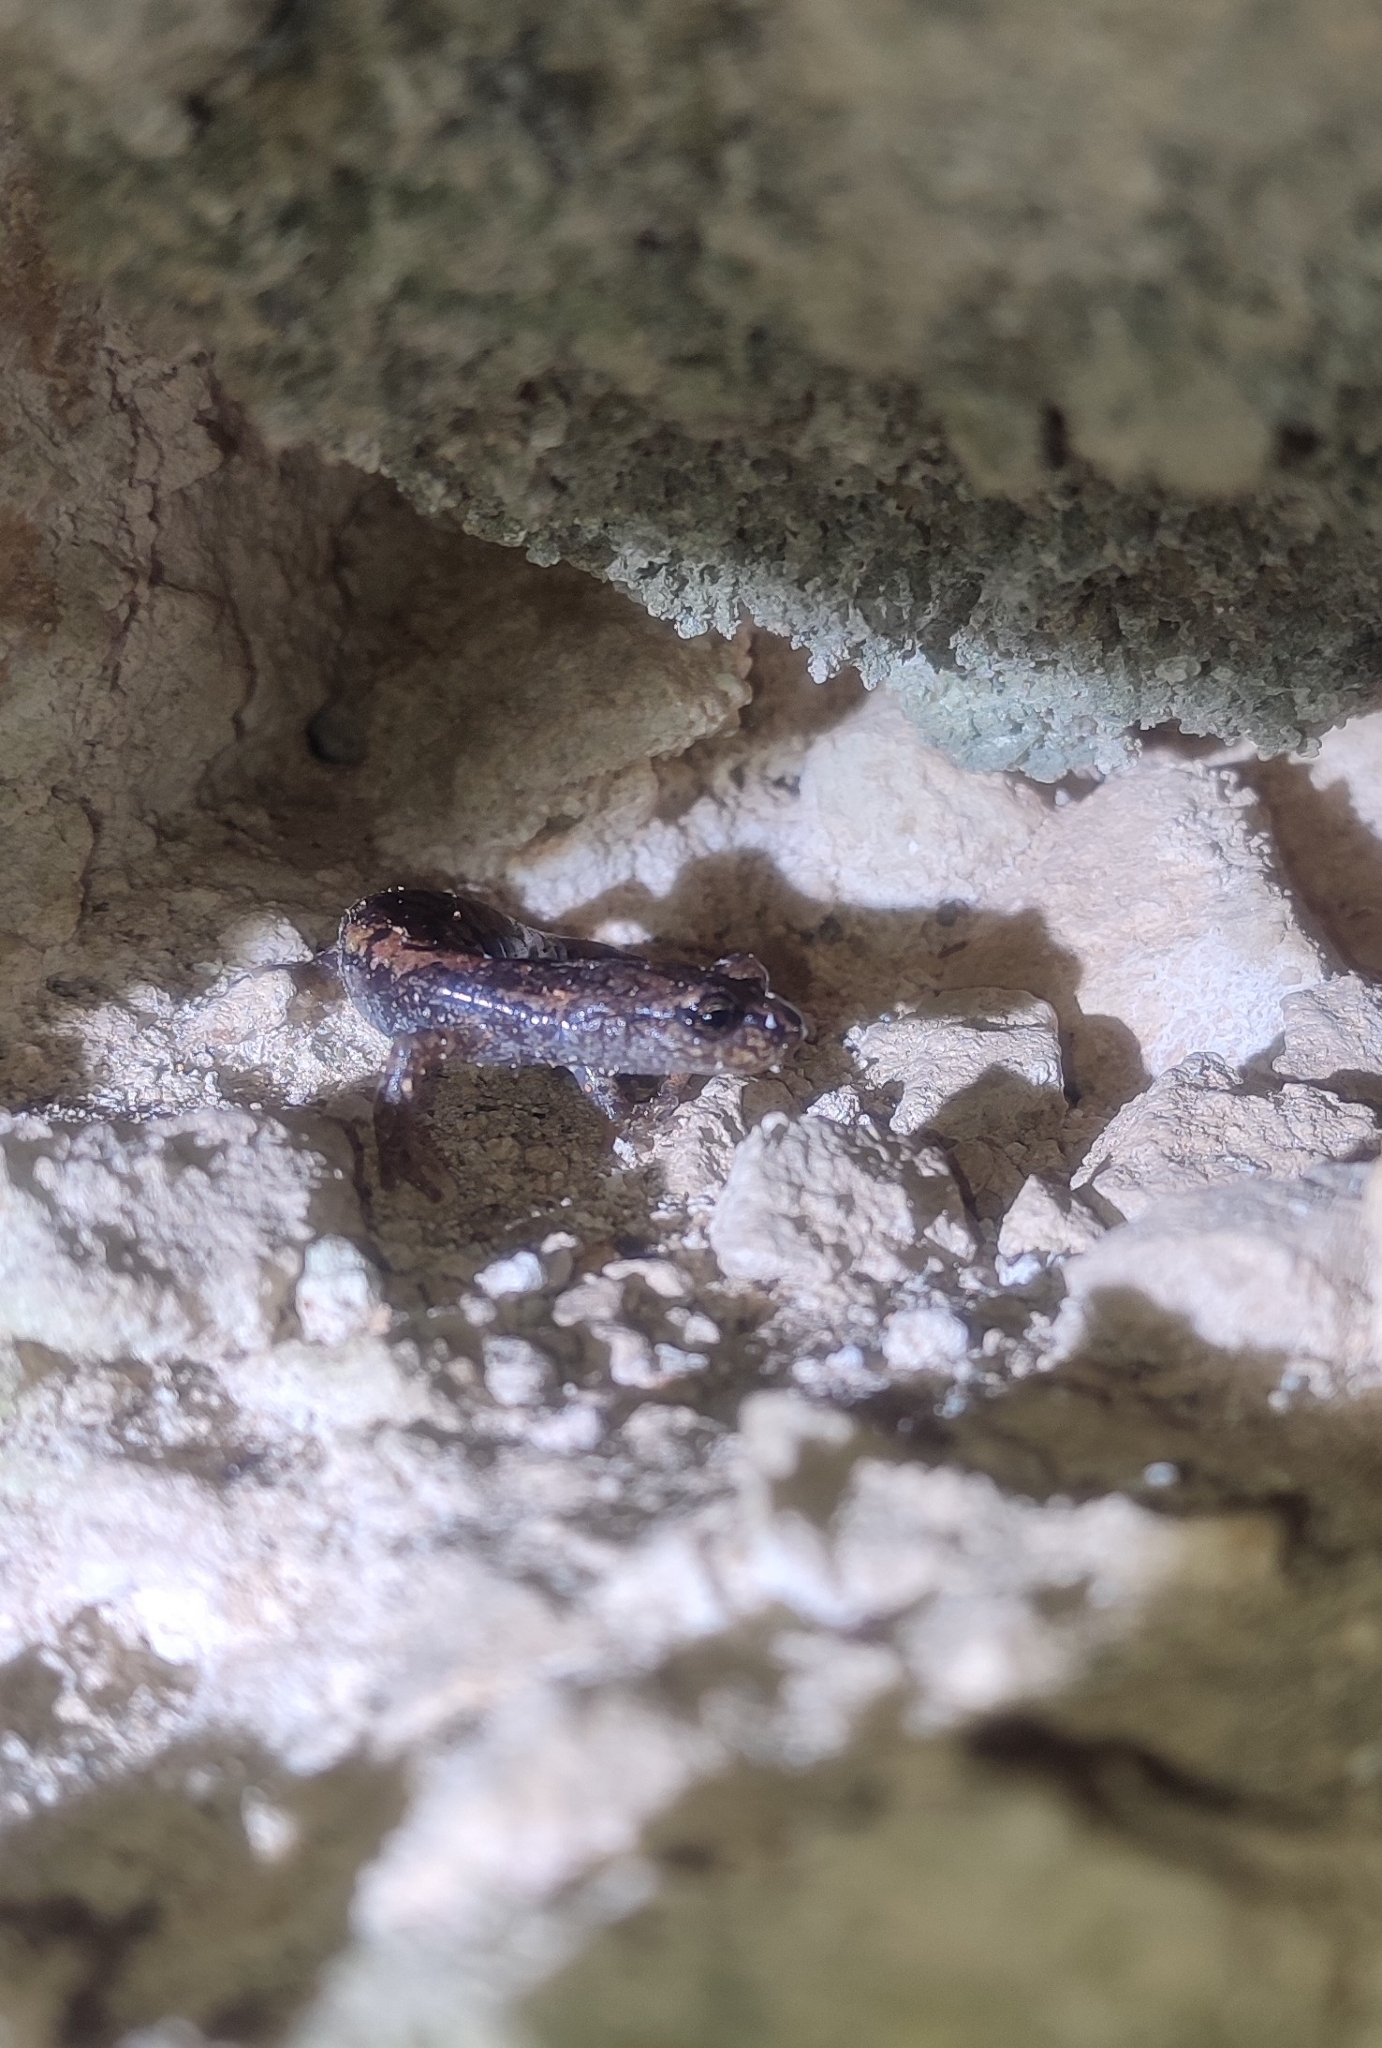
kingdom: Animalia
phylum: Chordata
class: Amphibia
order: Caudata
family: Plethodontidae
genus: Speleomantes
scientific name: Speleomantes strinatii
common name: French cave salamander
